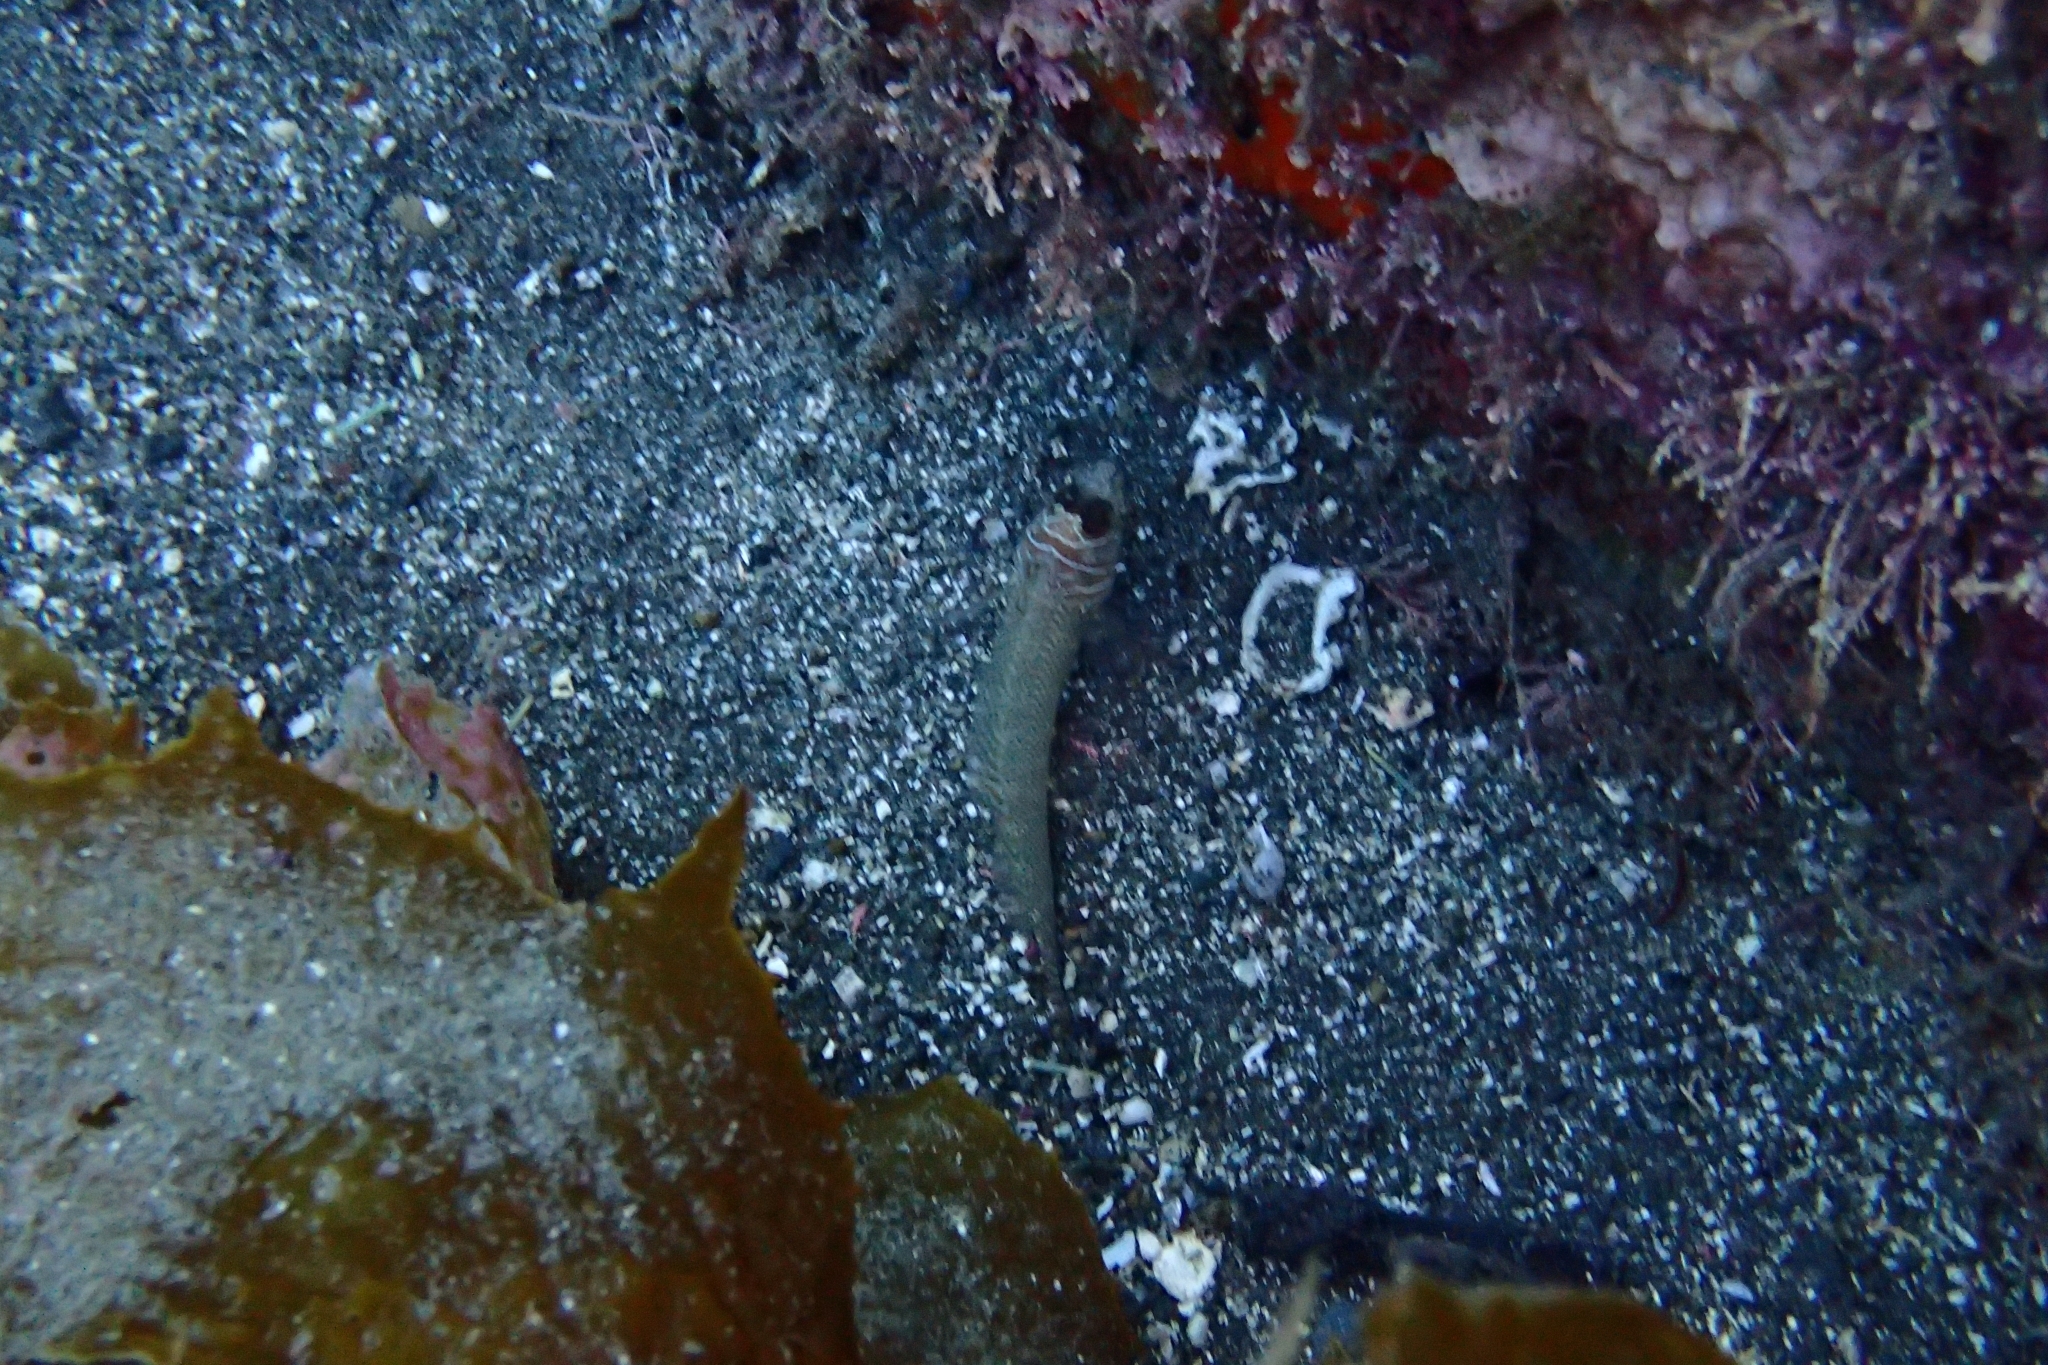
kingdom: Animalia
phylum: Chordata
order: Perciformes
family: Tripterygiidae
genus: Ruanoho
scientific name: Ruanoho whero
